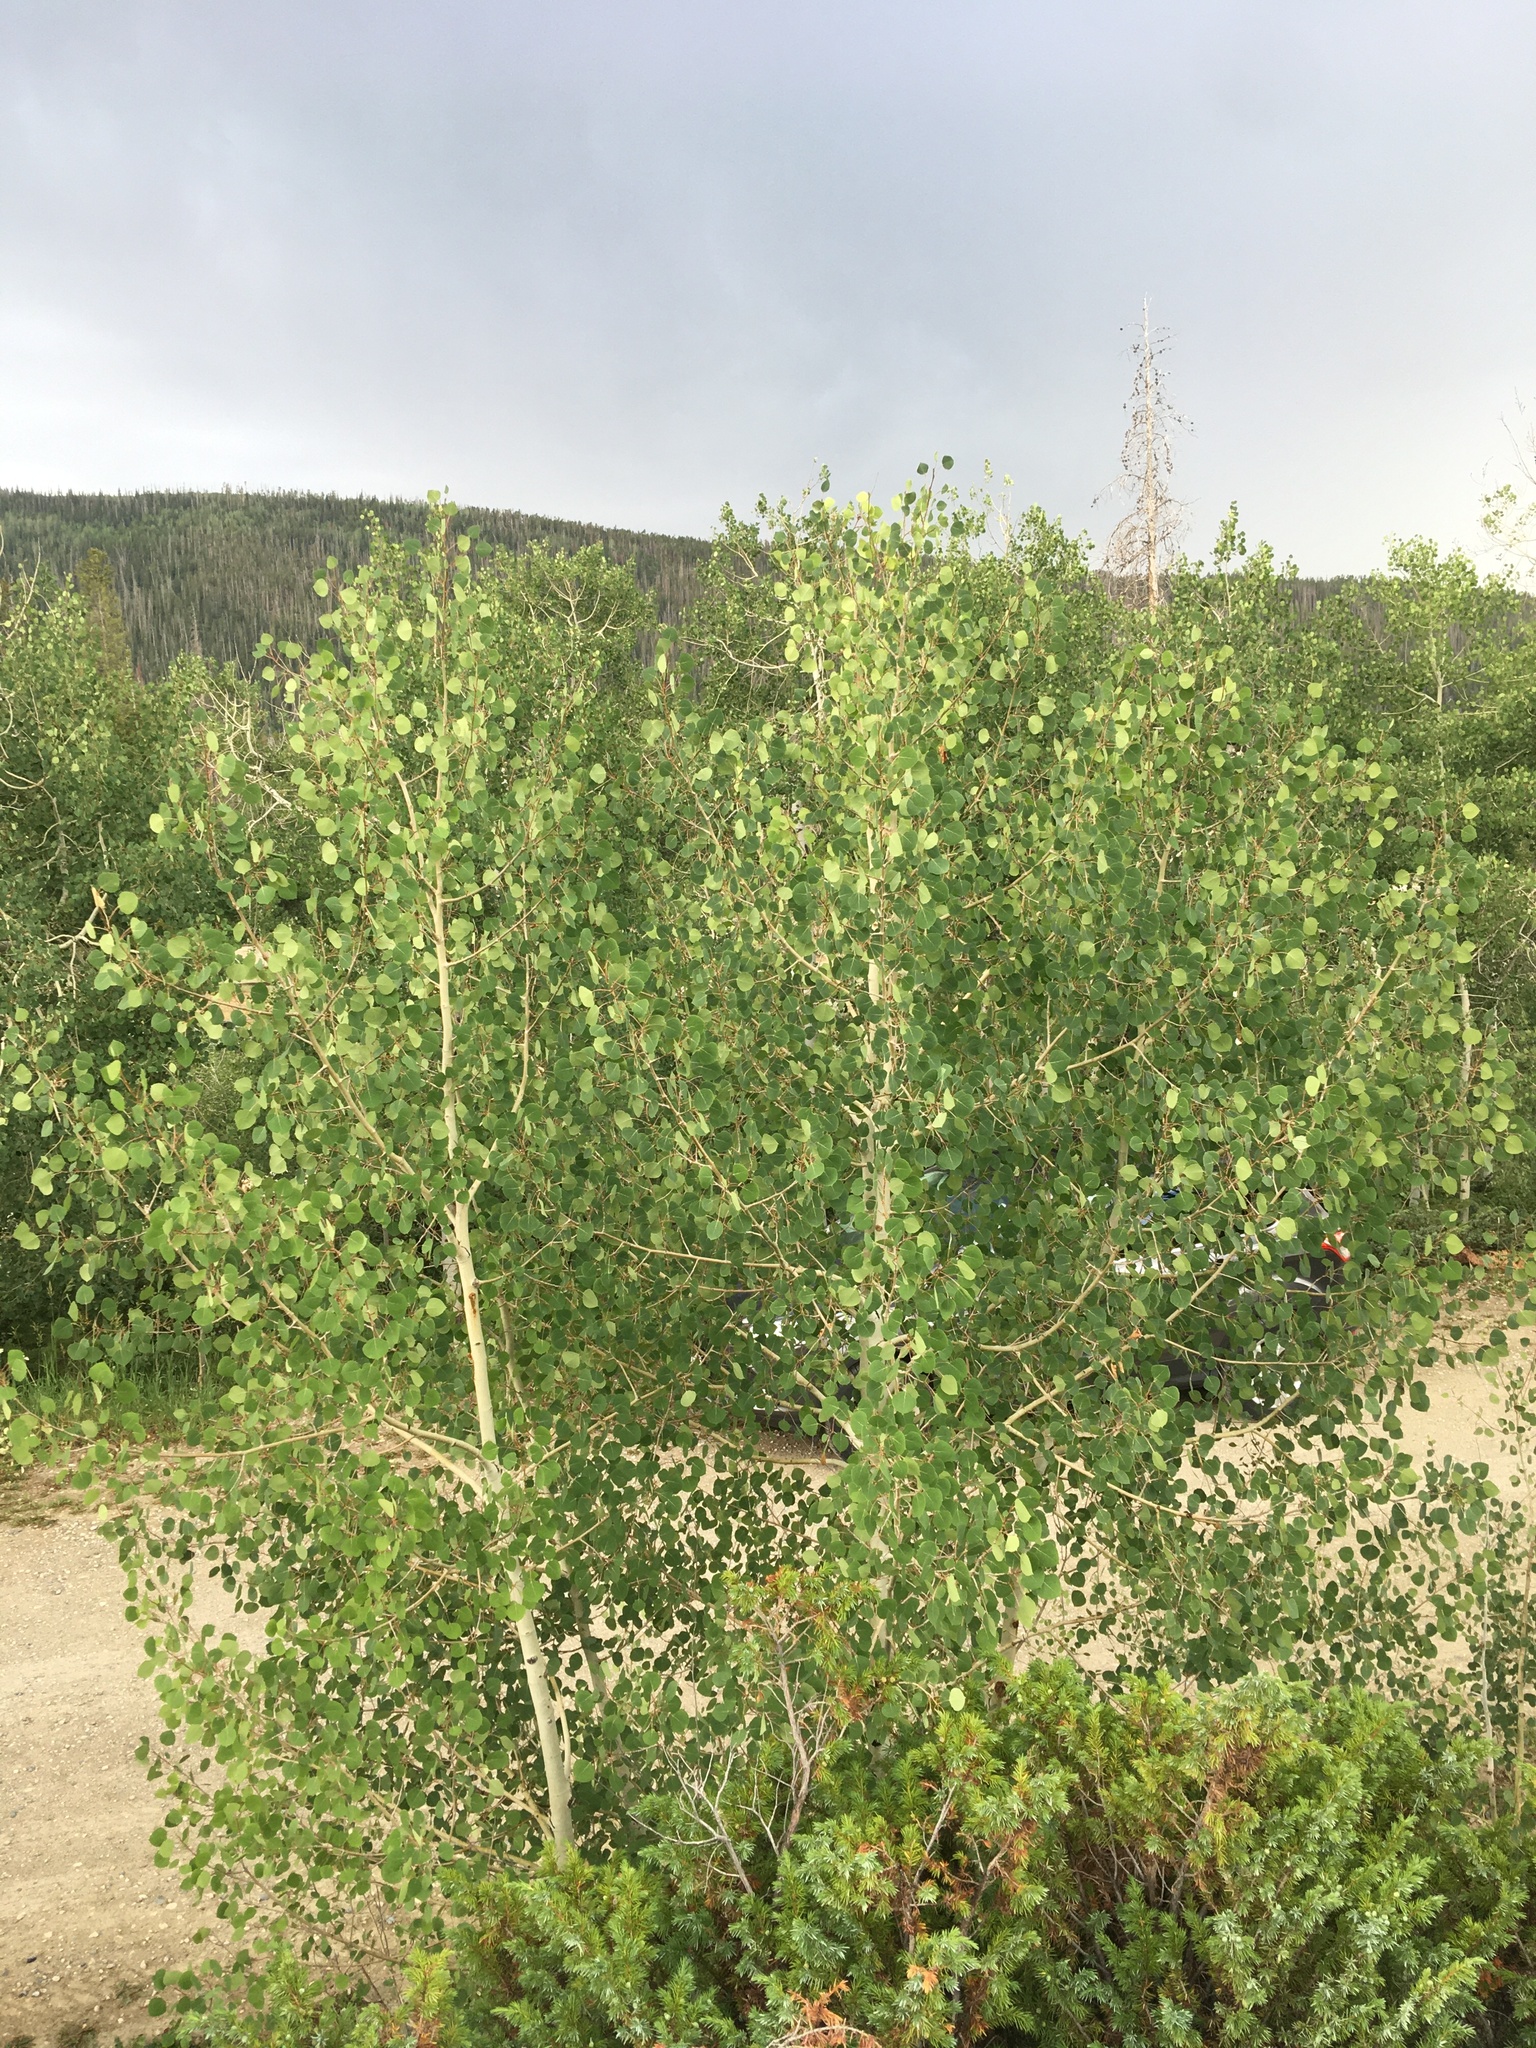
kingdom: Plantae
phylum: Tracheophyta
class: Magnoliopsida
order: Malpighiales
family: Salicaceae
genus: Populus
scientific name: Populus tremuloides
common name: Quaking aspen
